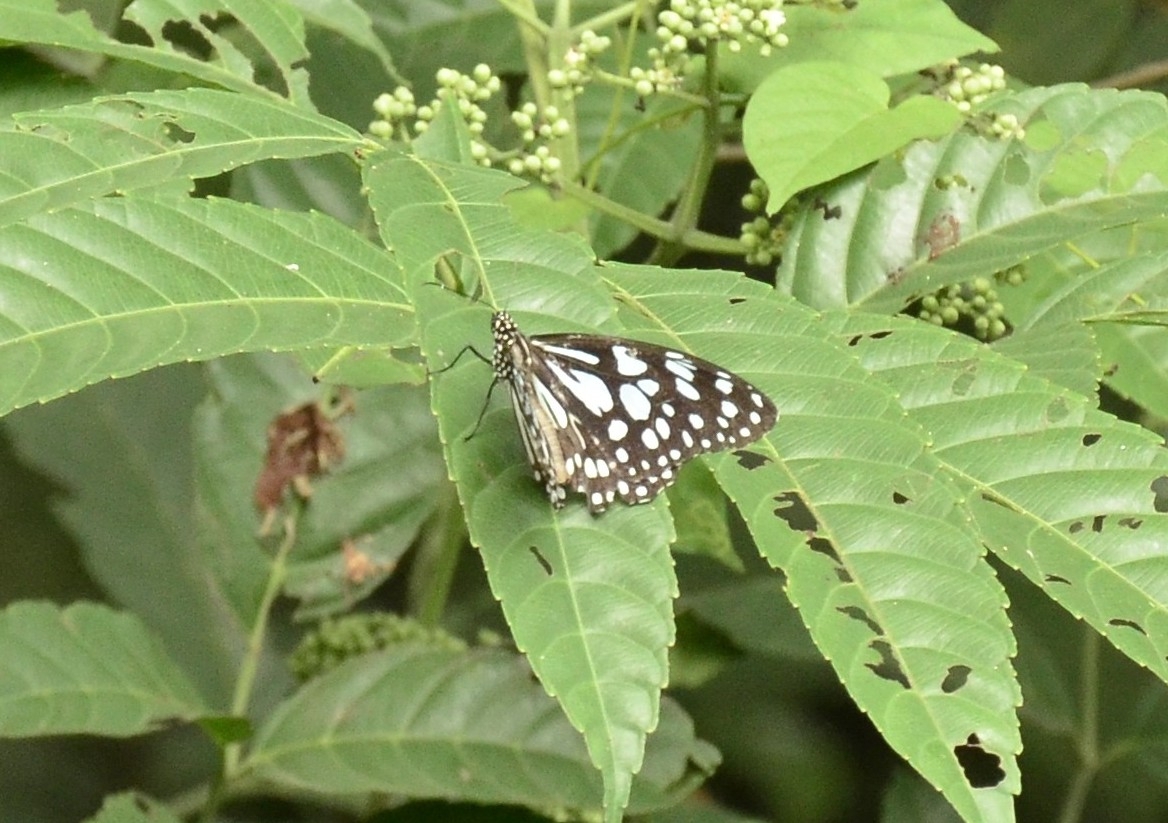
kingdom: Animalia
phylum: Arthropoda
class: Insecta
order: Lepidoptera
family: Nymphalidae
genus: Tirumala
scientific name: Tirumala limniace
